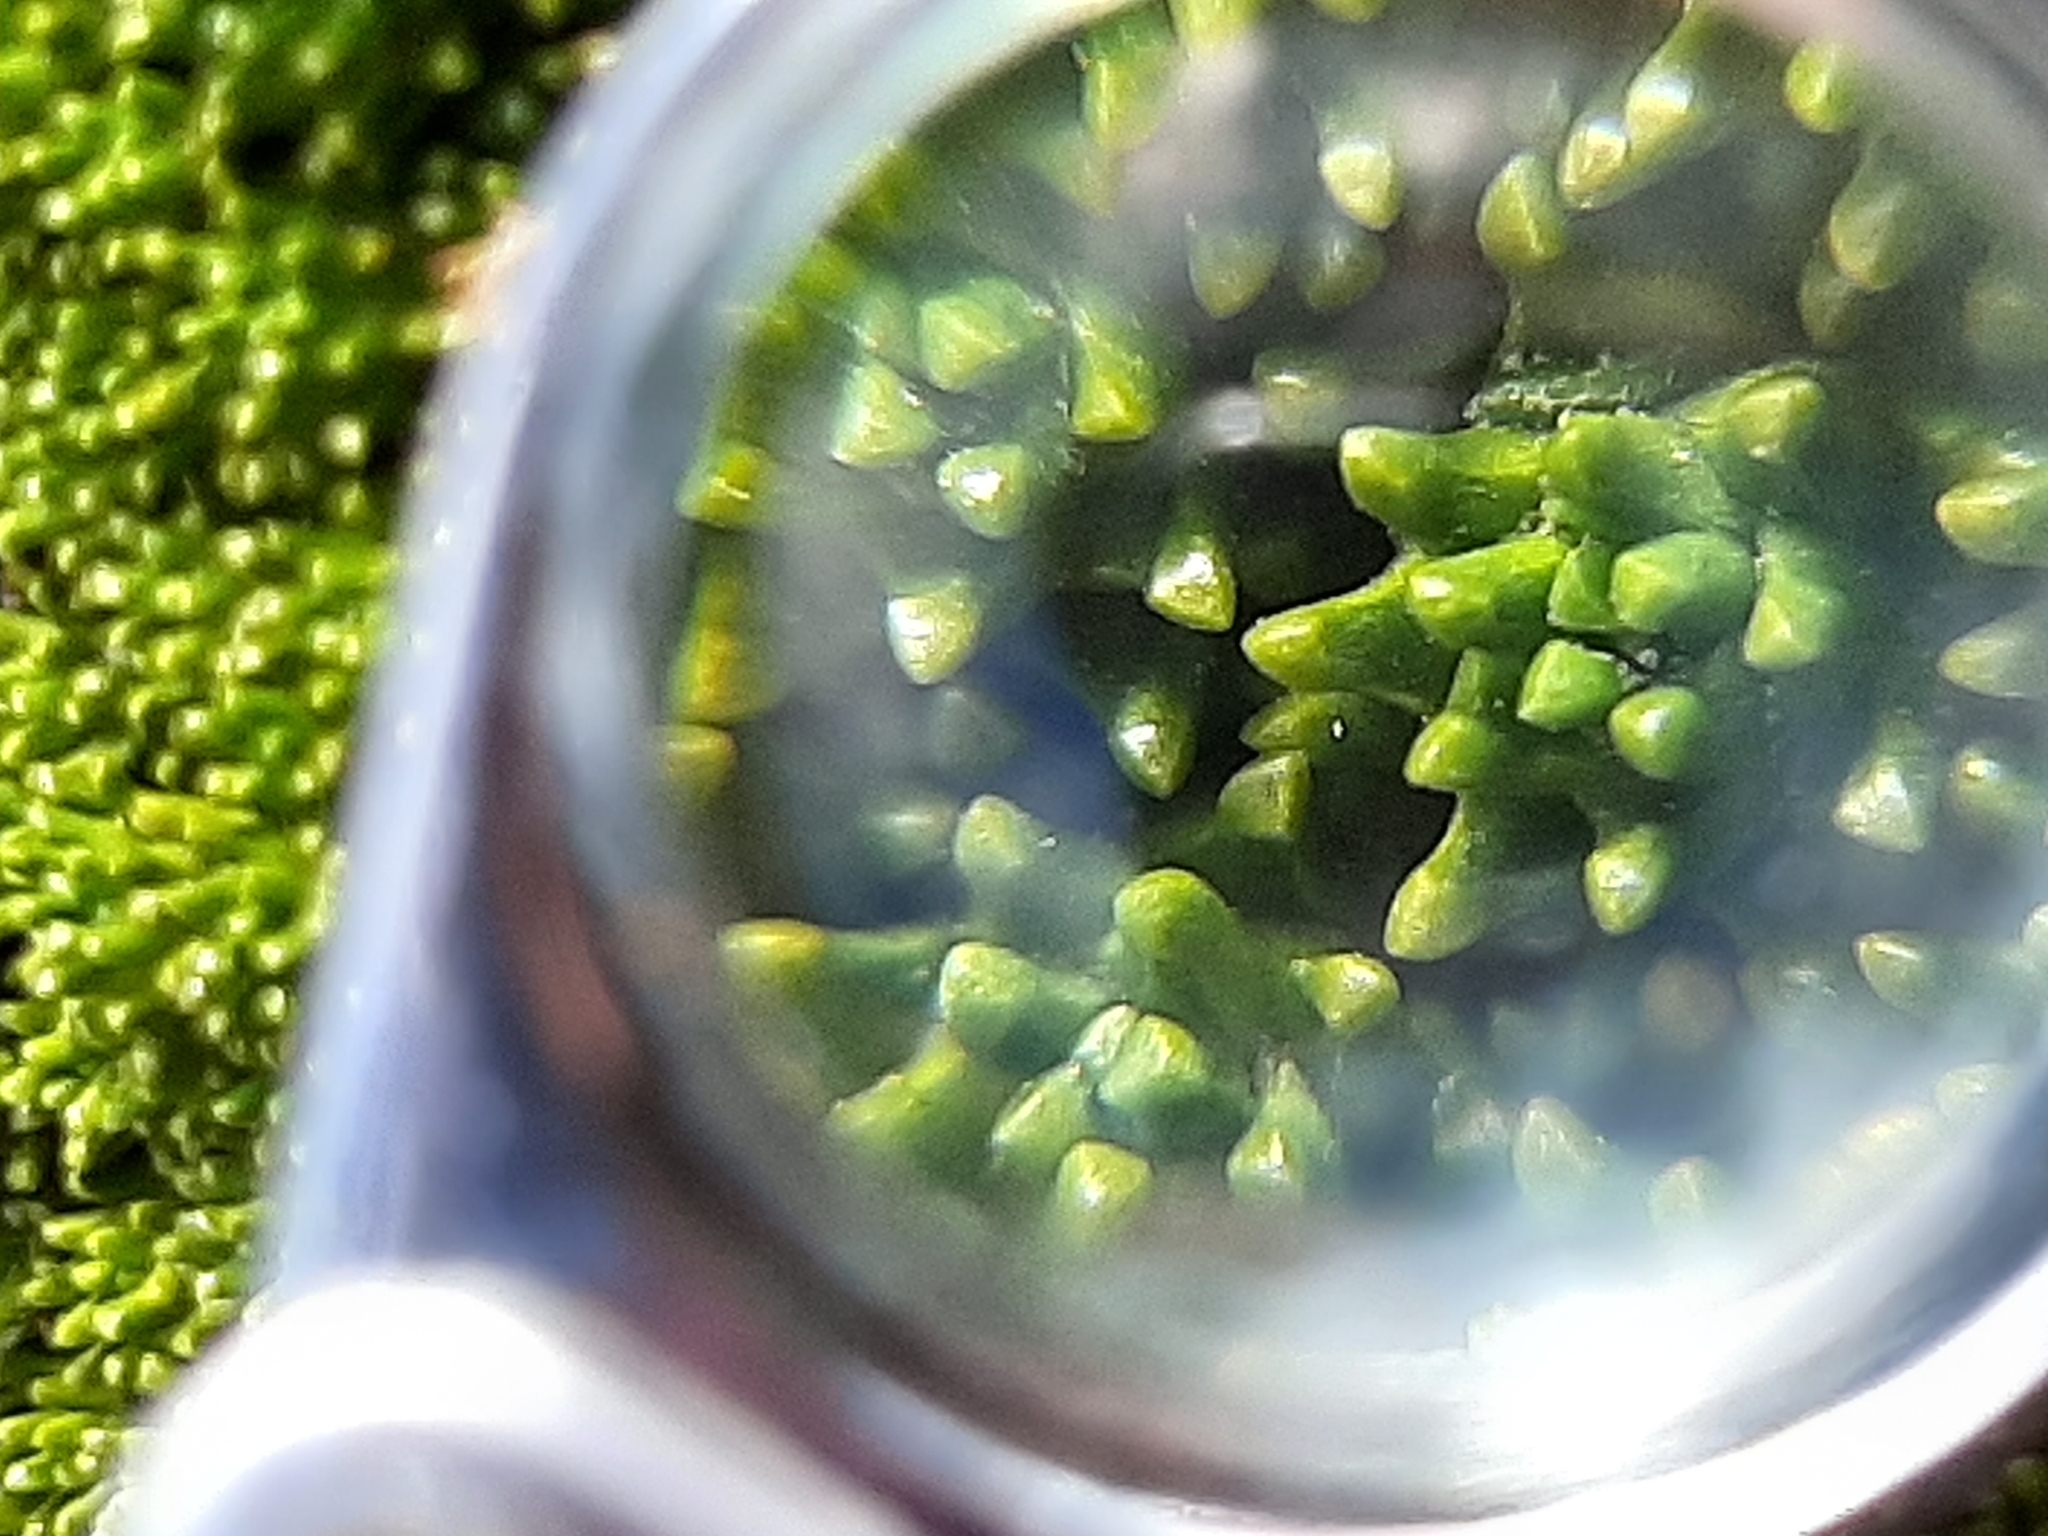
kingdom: Plantae
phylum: Tracheophyta
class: Magnoliopsida
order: Asterales
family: Stylidiaceae
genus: Phyllachne
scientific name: Phyllachne colensoi
